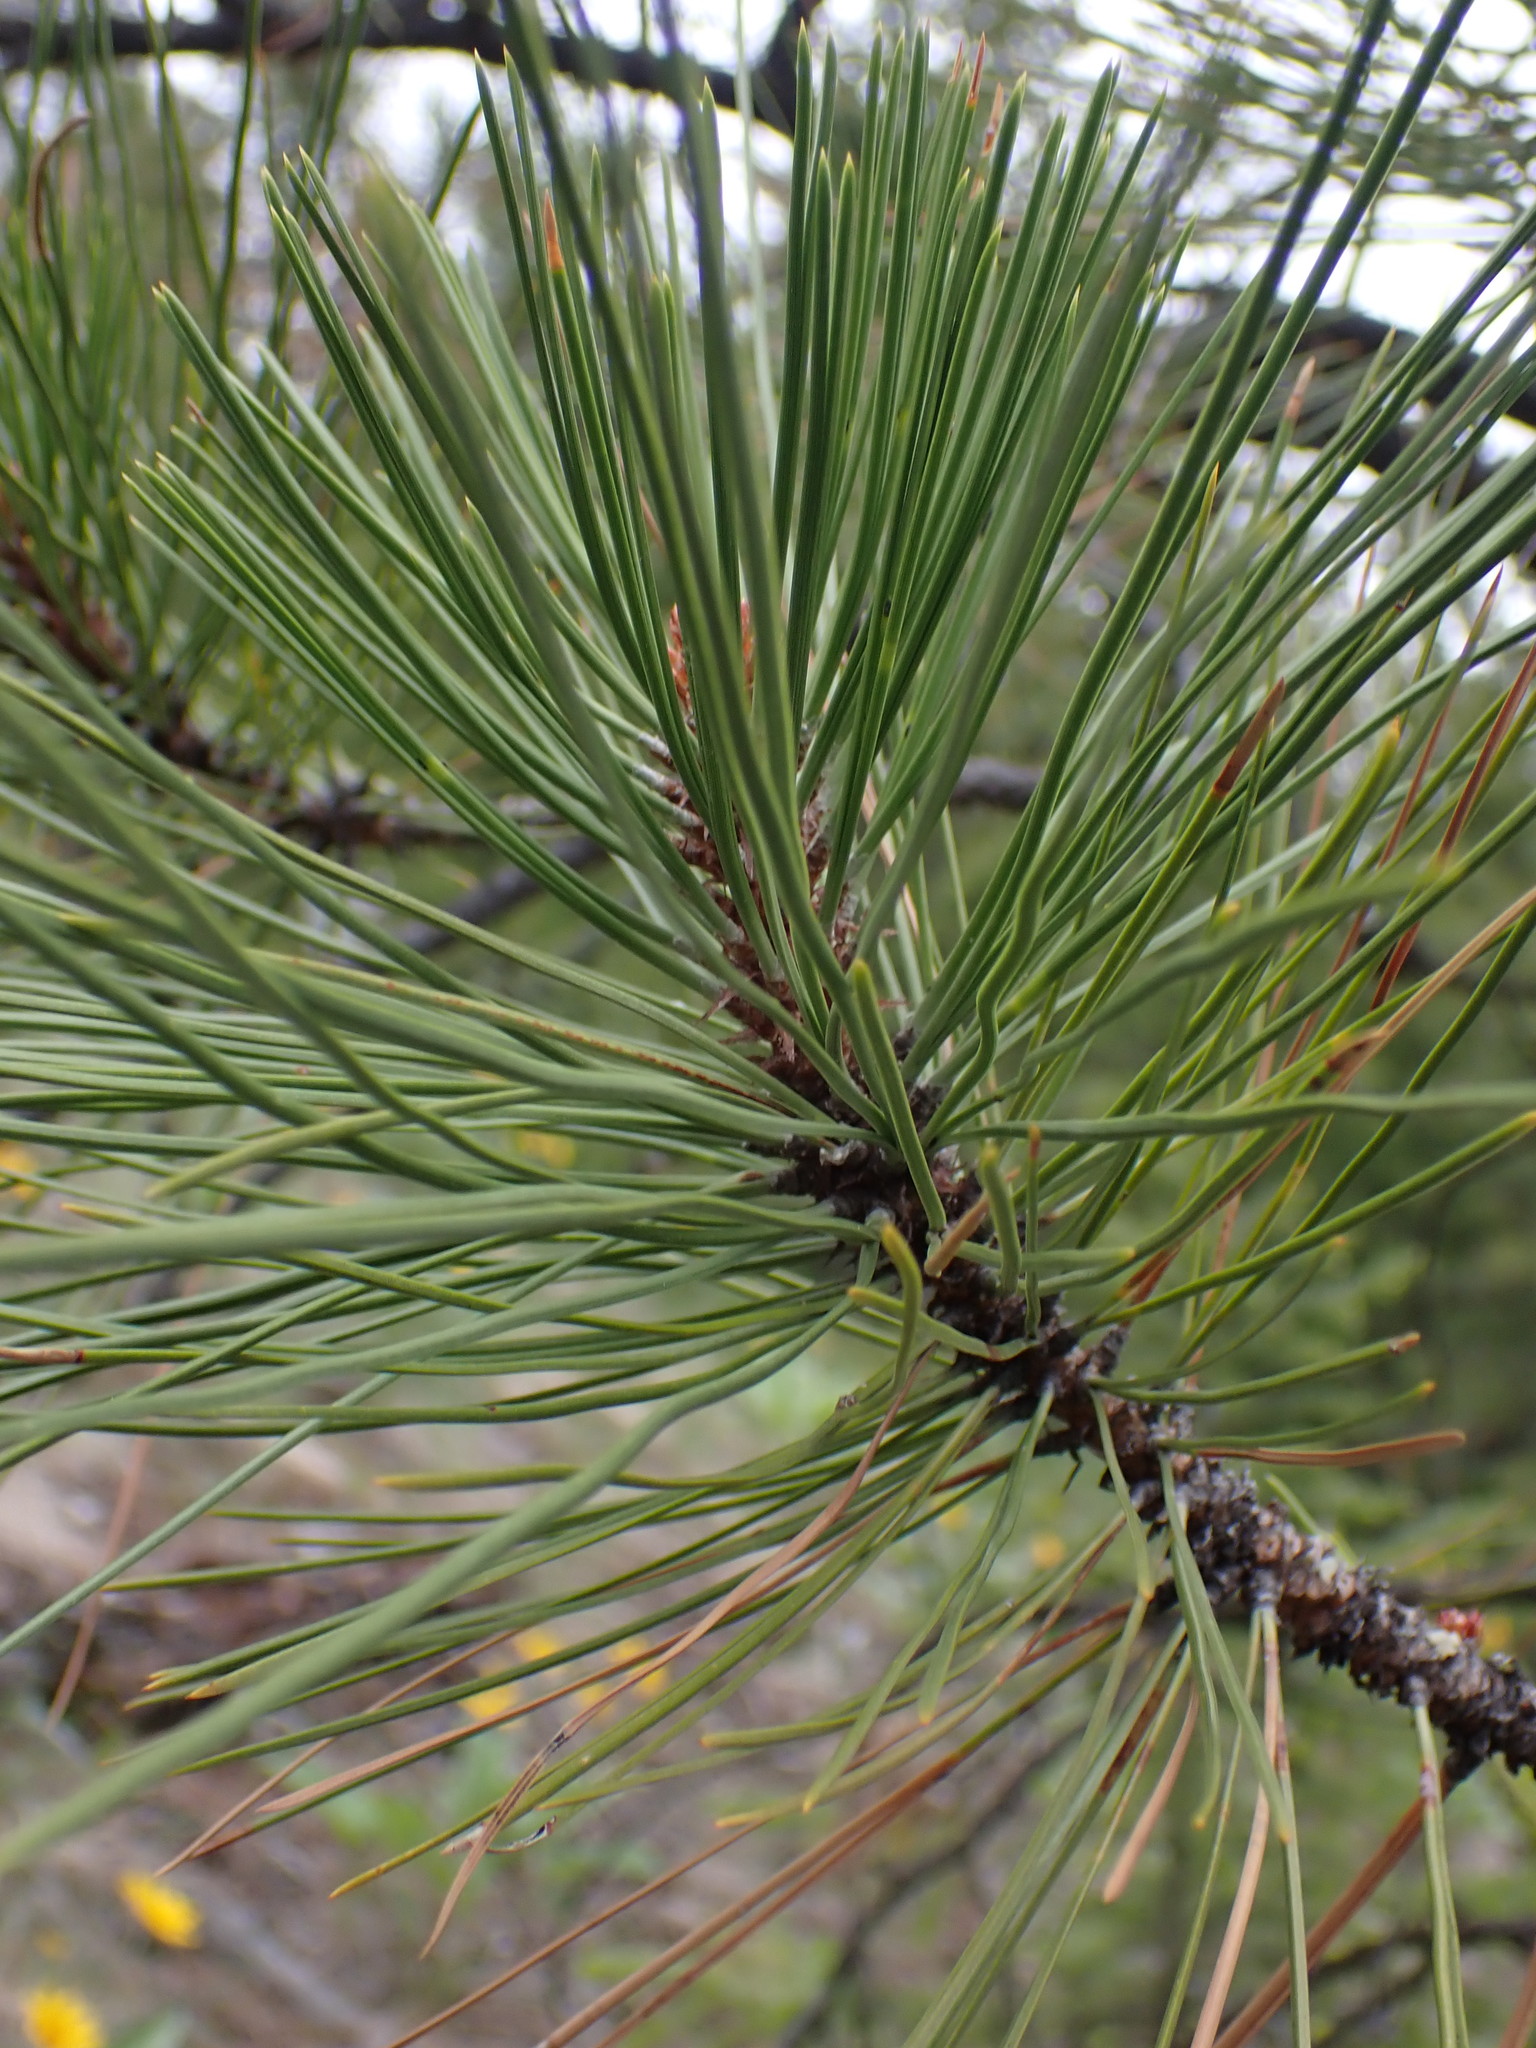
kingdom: Plantae
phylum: Tracheophyta
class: Pinopsida
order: Pinales
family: Pinaceae
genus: Pinus
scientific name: Pinus contorta
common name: Lodgepole pine
